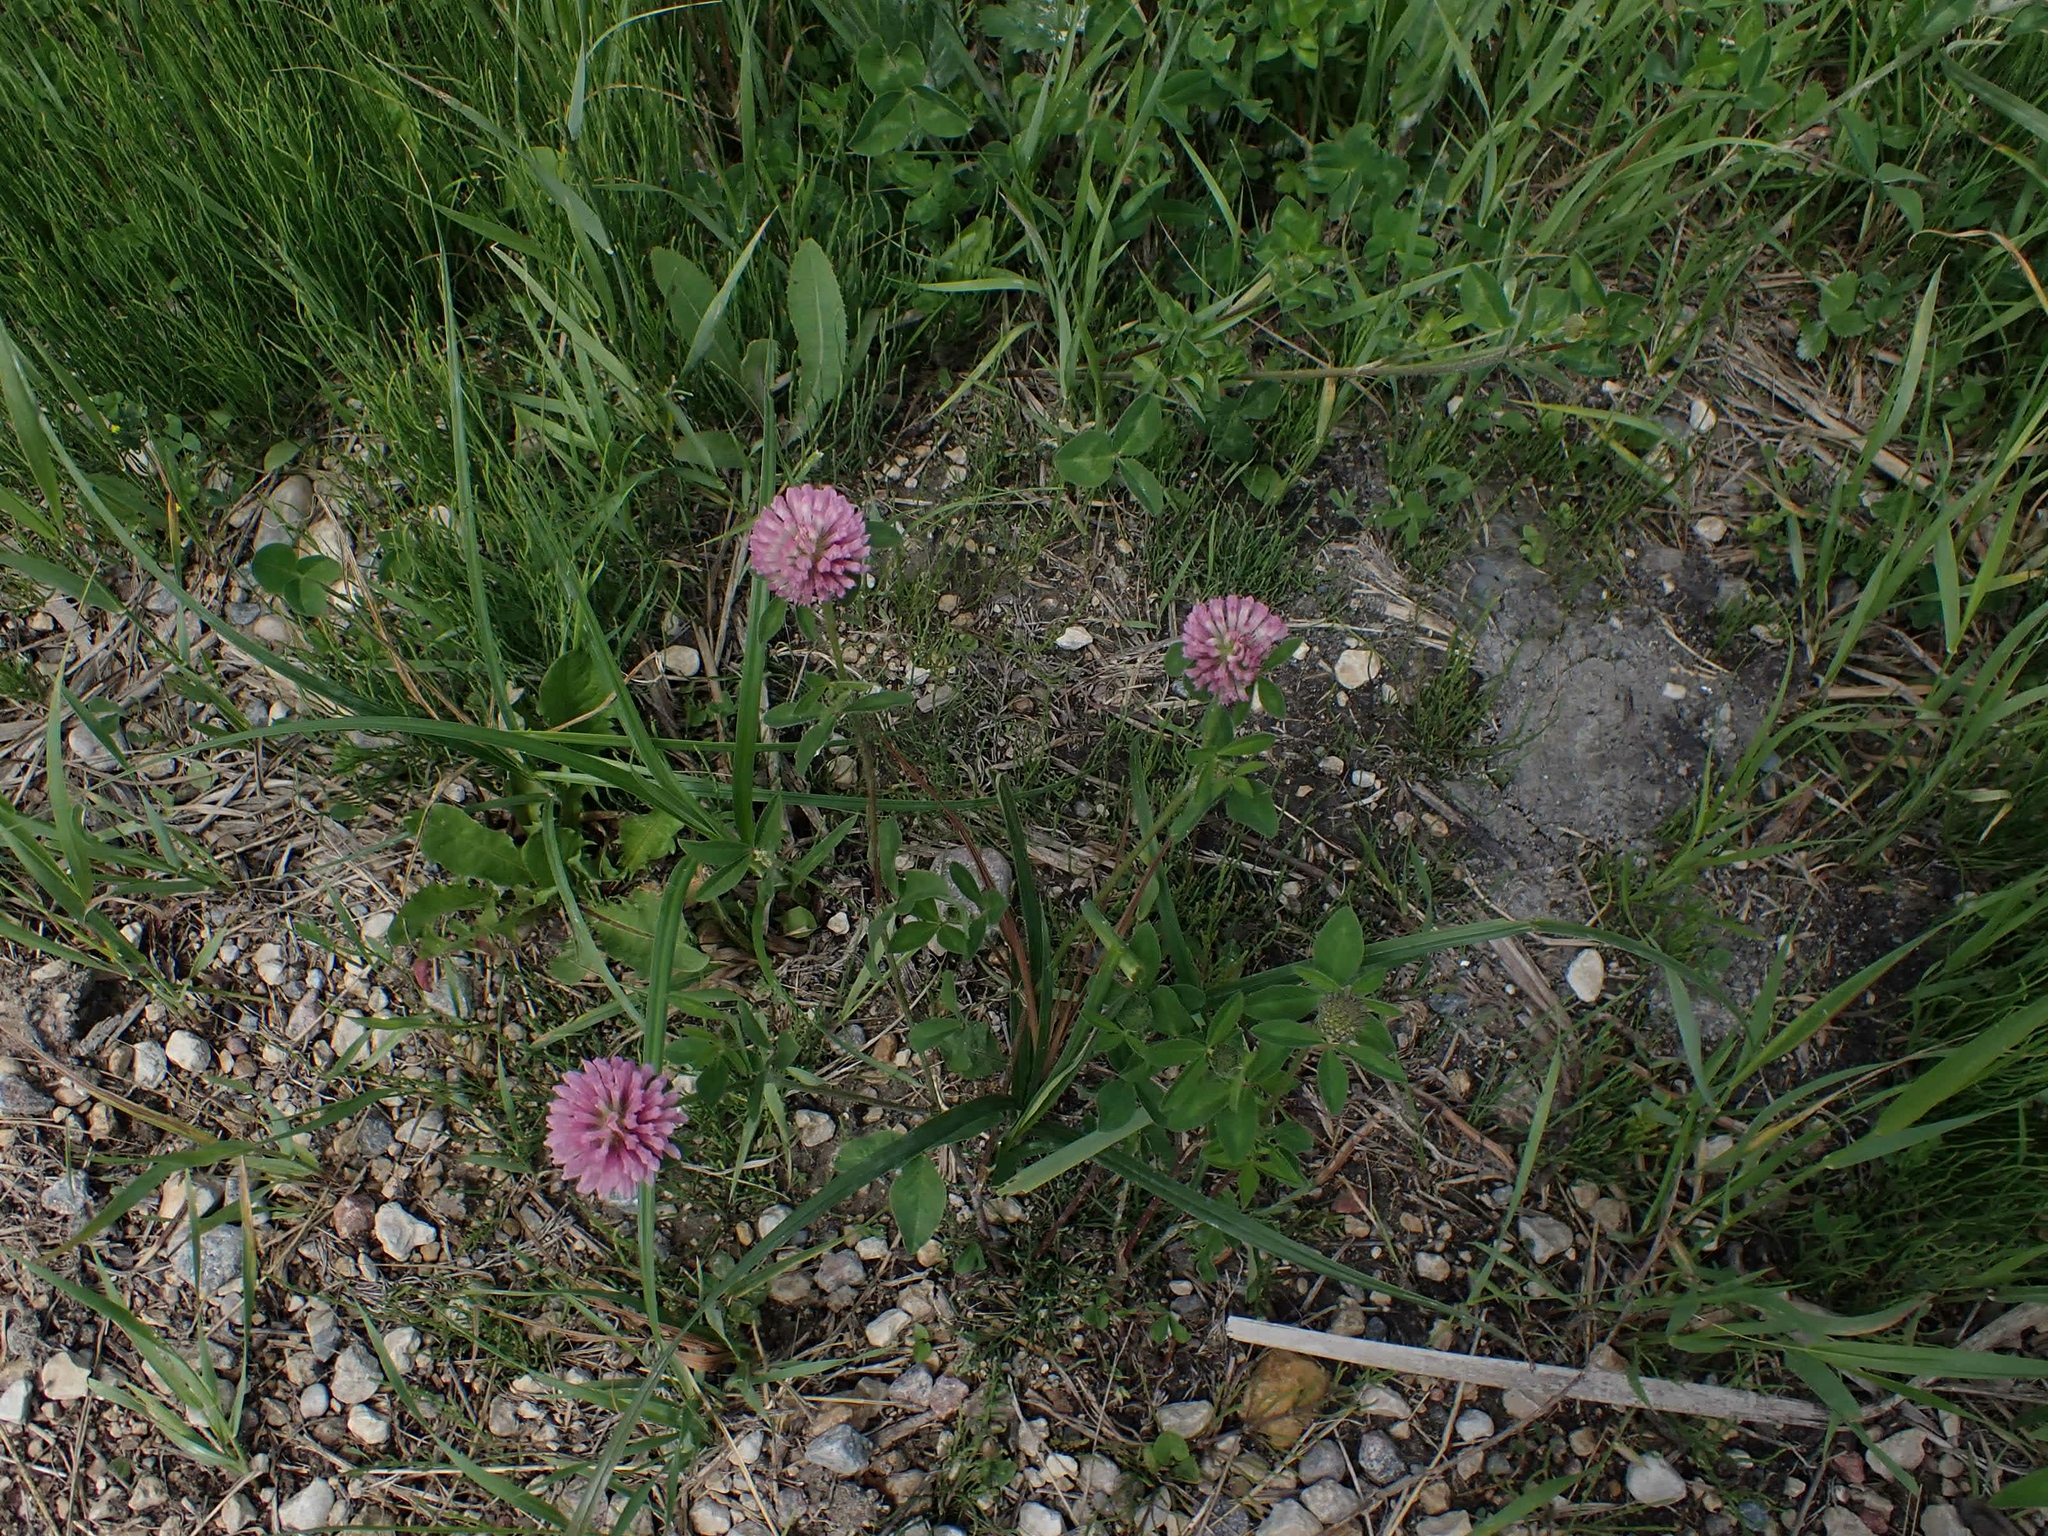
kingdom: Plantae
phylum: Tracheophyta
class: Magnoliopsida
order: Fabales
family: Fabaceae
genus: Trifolium
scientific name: Trifolium pratense
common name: Red clover
